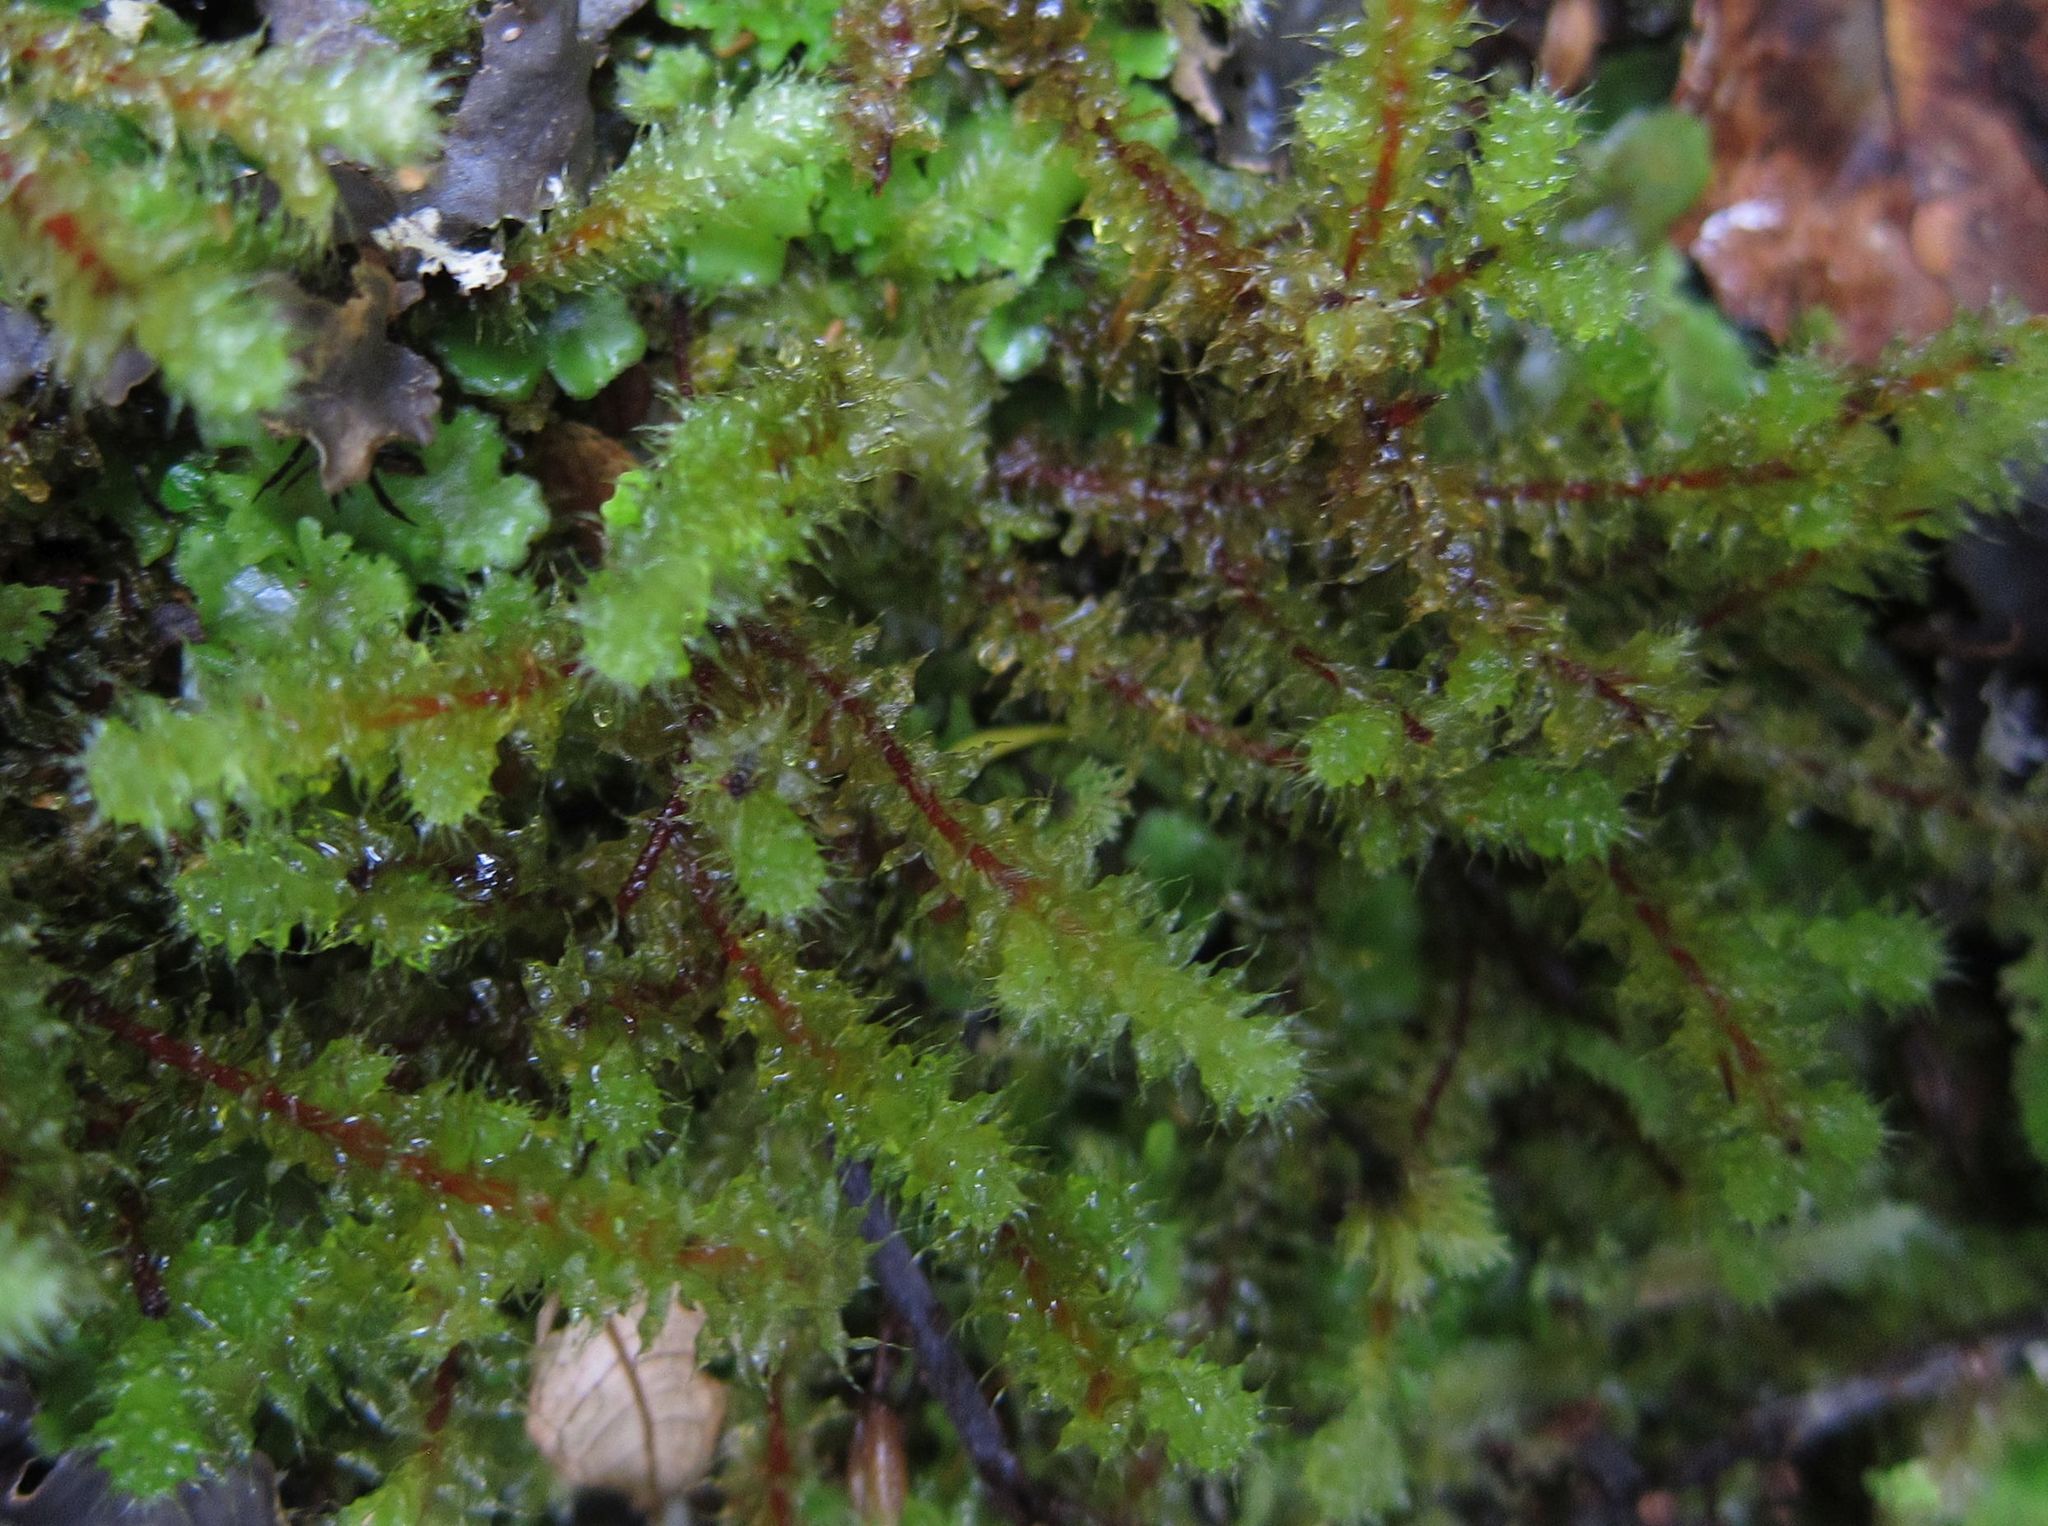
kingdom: Plantae
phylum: Bryophyta
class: Bryopsida
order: Ptychomniales
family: Ptychomniaceae
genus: Ptychomnion
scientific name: Ptychomnion aciculare
